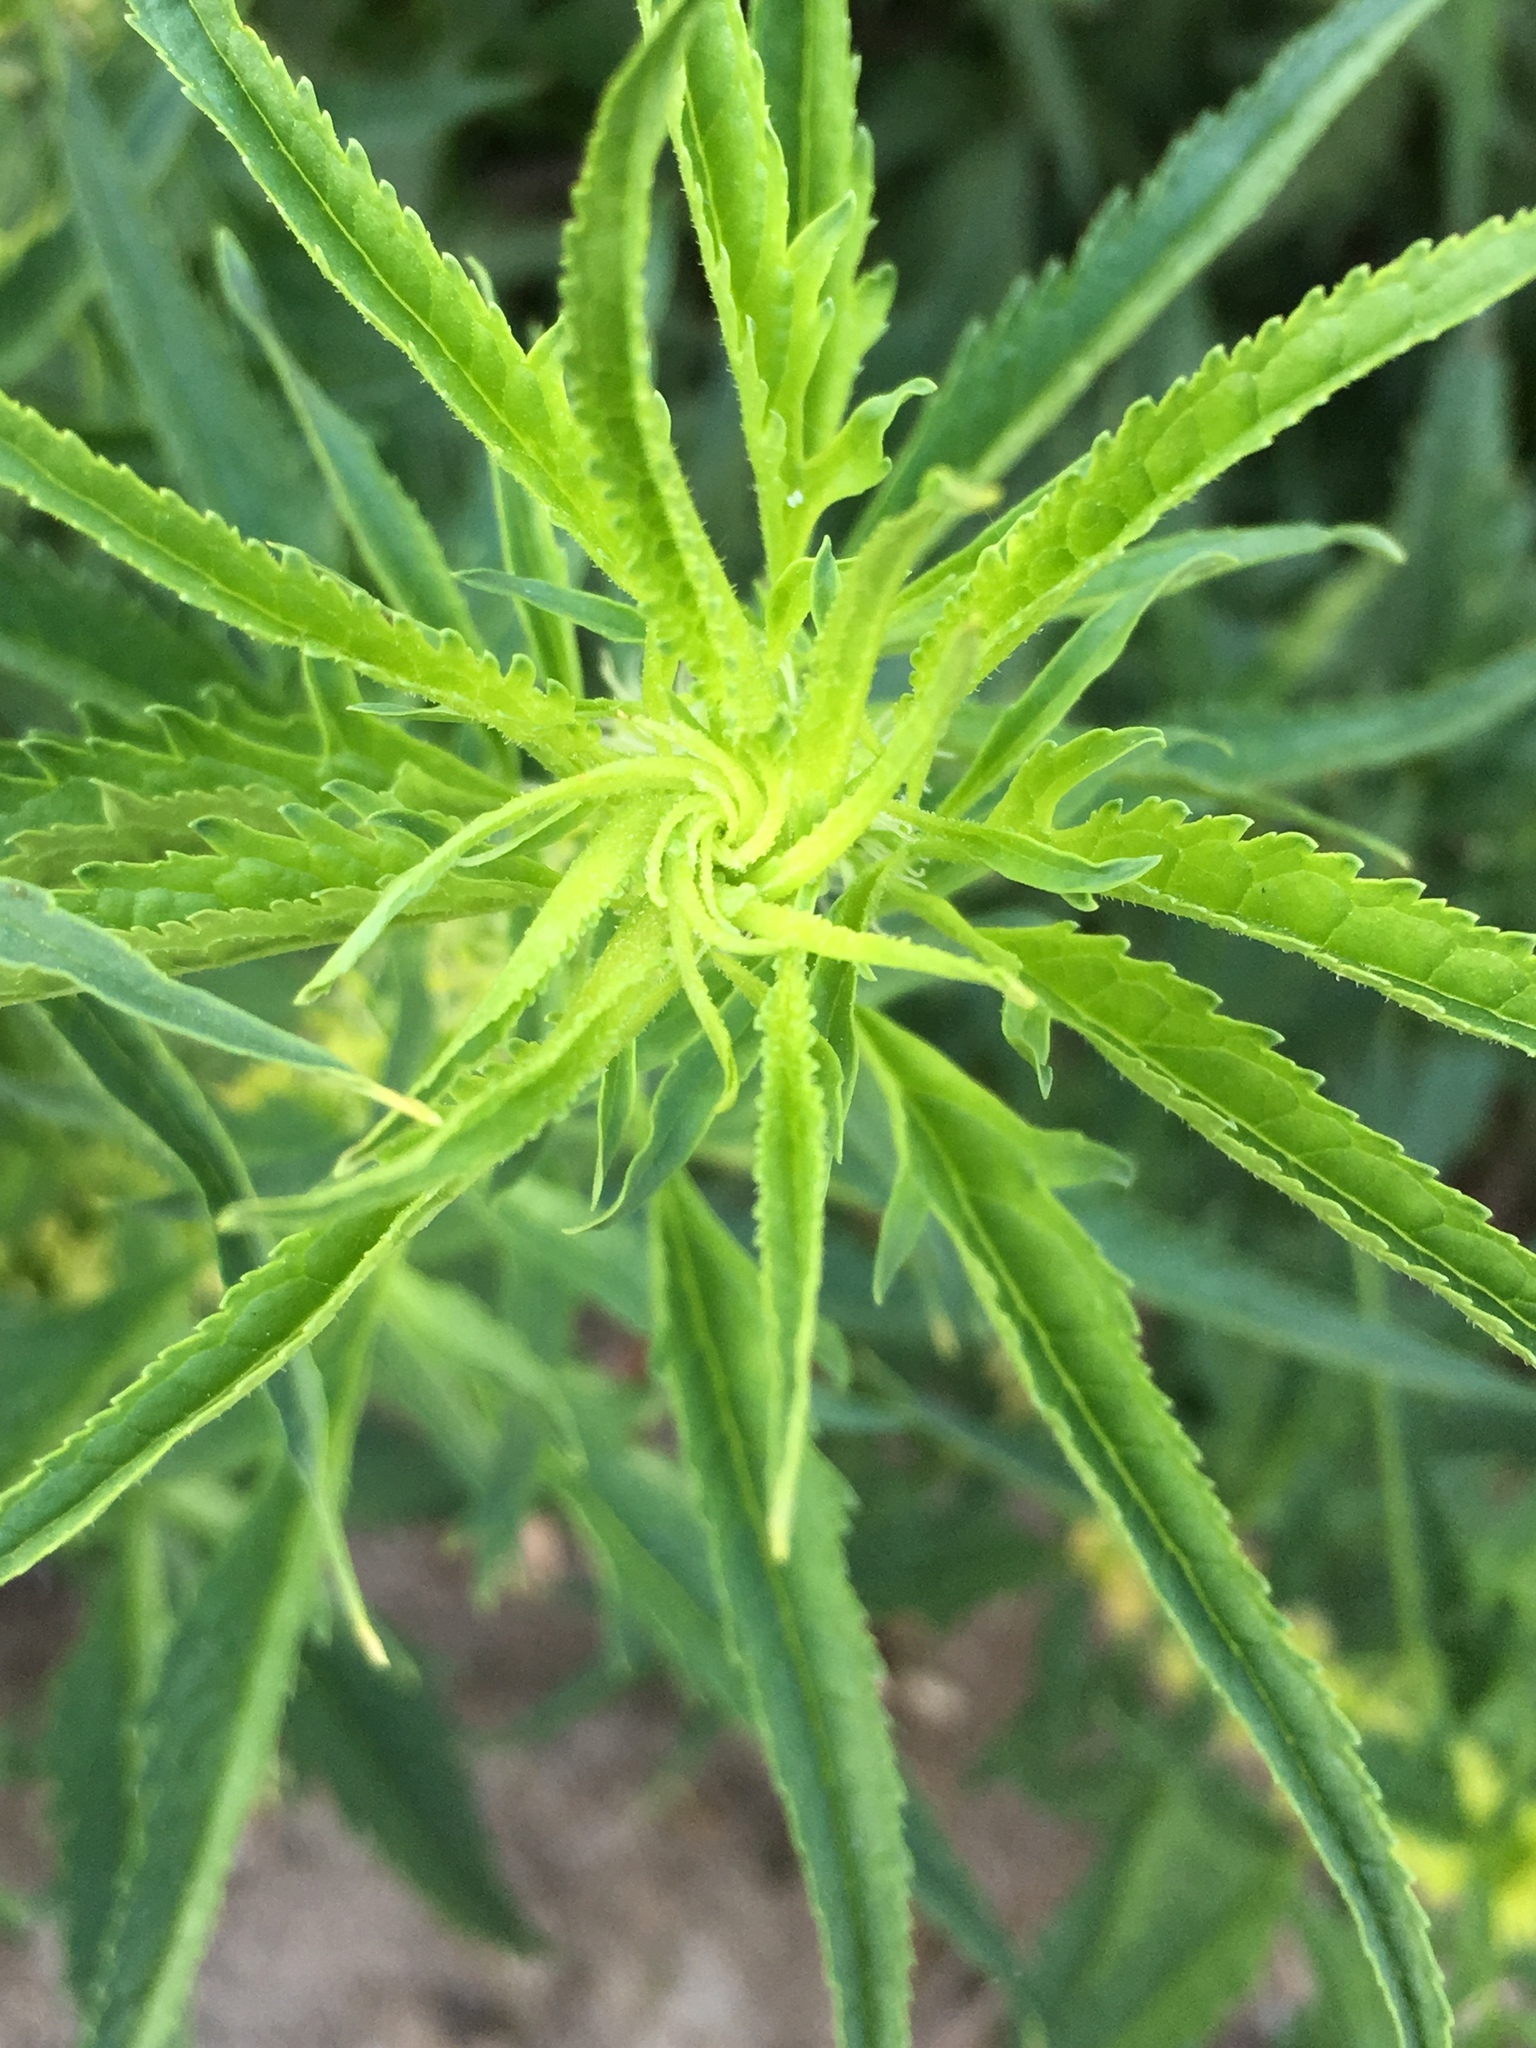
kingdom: Plantae
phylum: Tracheophyta
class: Magnoliopsida
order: Cucurbitales
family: Datiscaceae
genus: Datisca
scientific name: Datisca glomerata
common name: Durango-root
